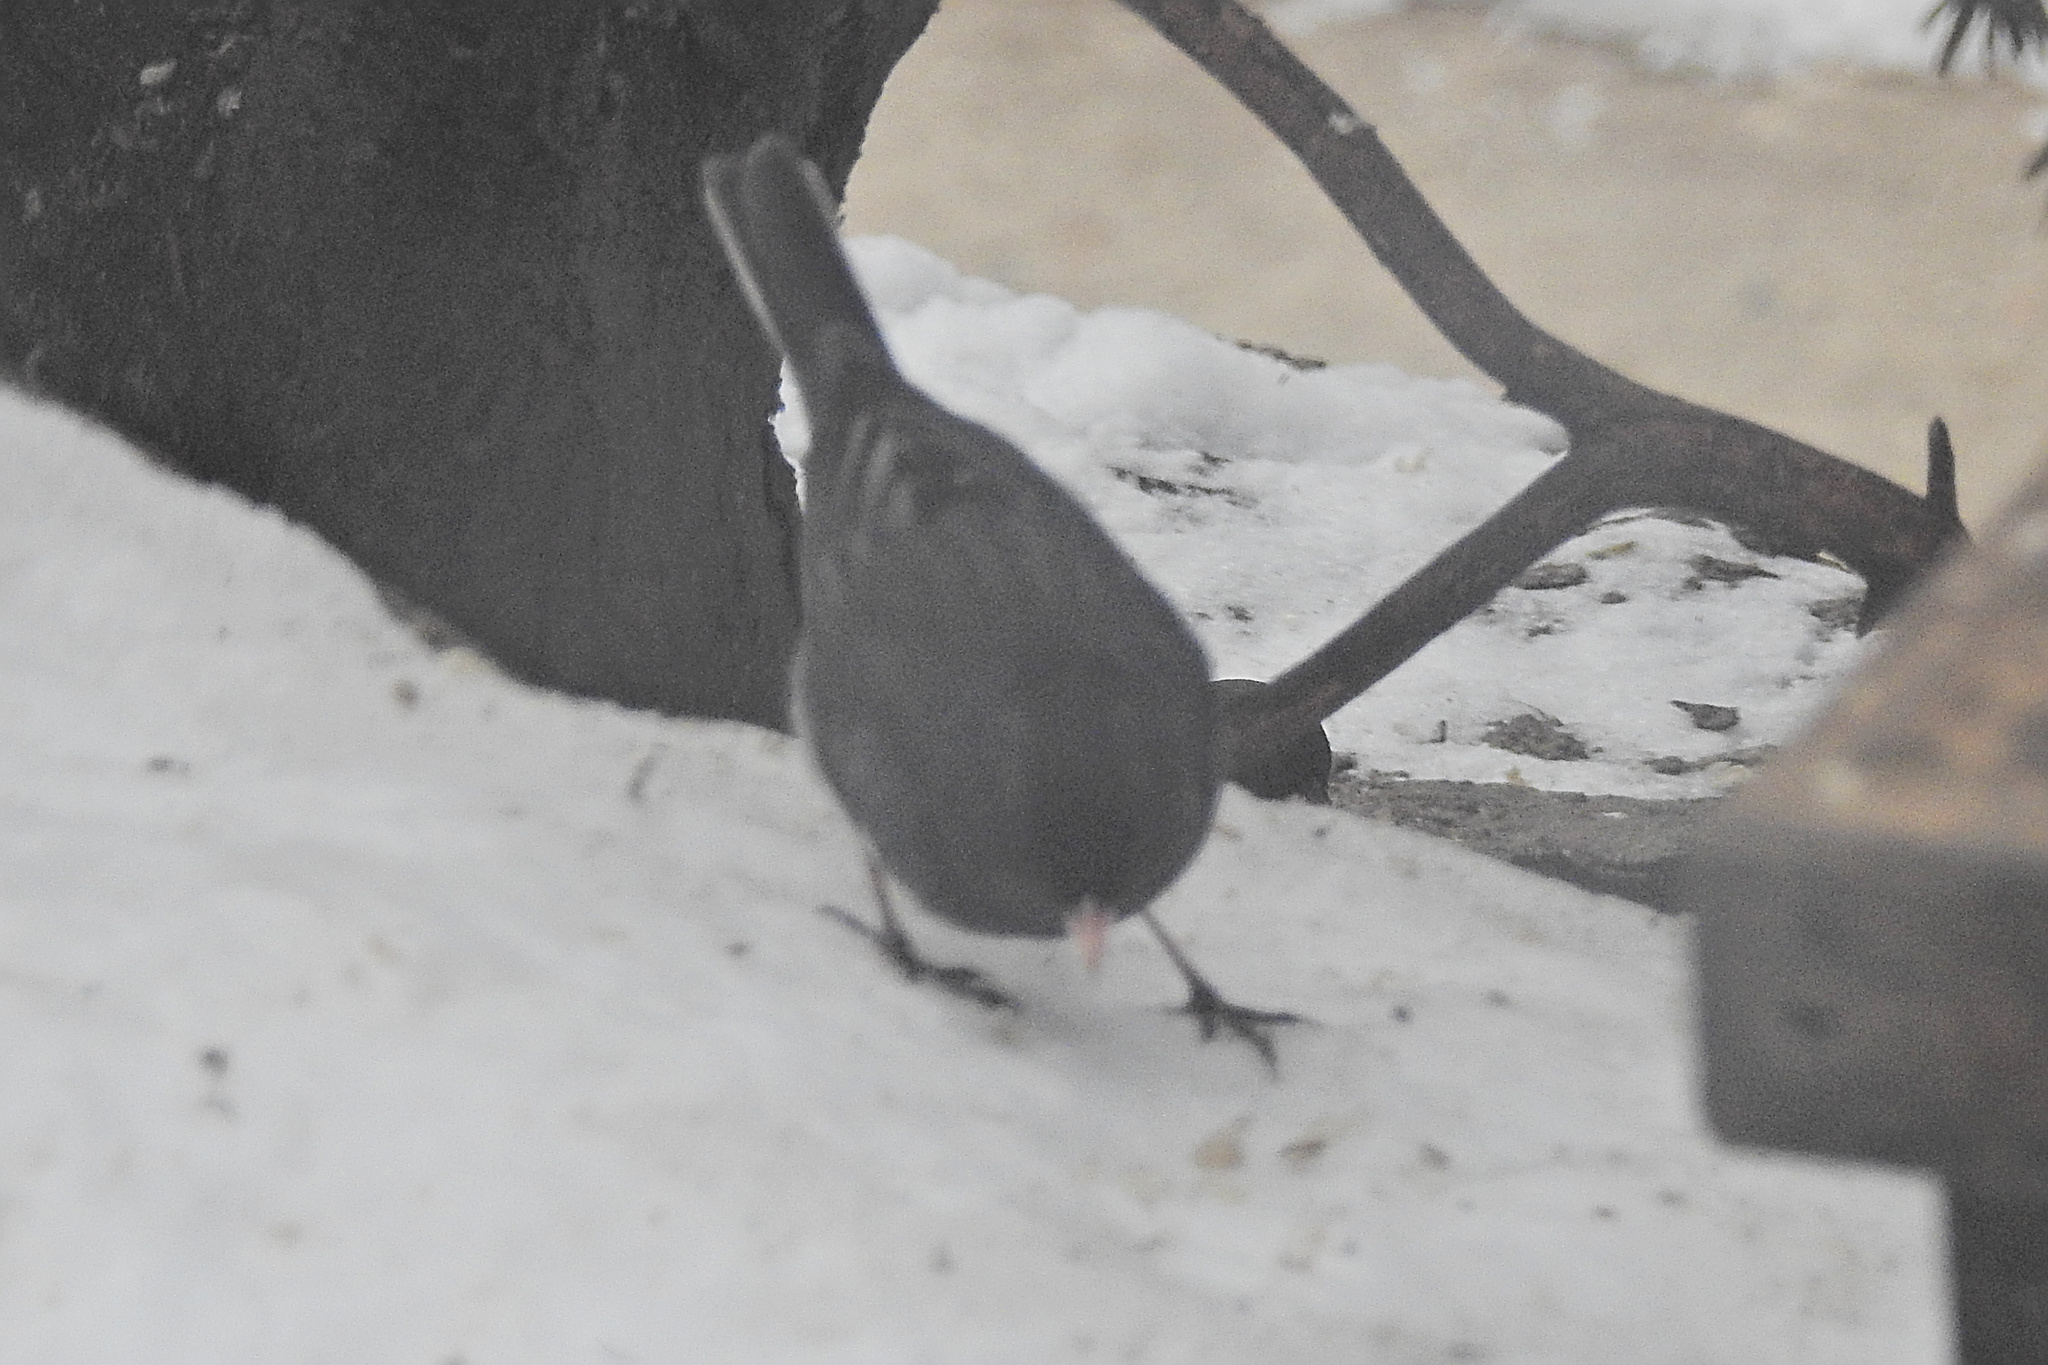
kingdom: Animalia
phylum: Chordata
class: Aves
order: Passeriformes
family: Passerellidae
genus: Junco
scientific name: Junco hyemalis
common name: Dark-eyed junco
